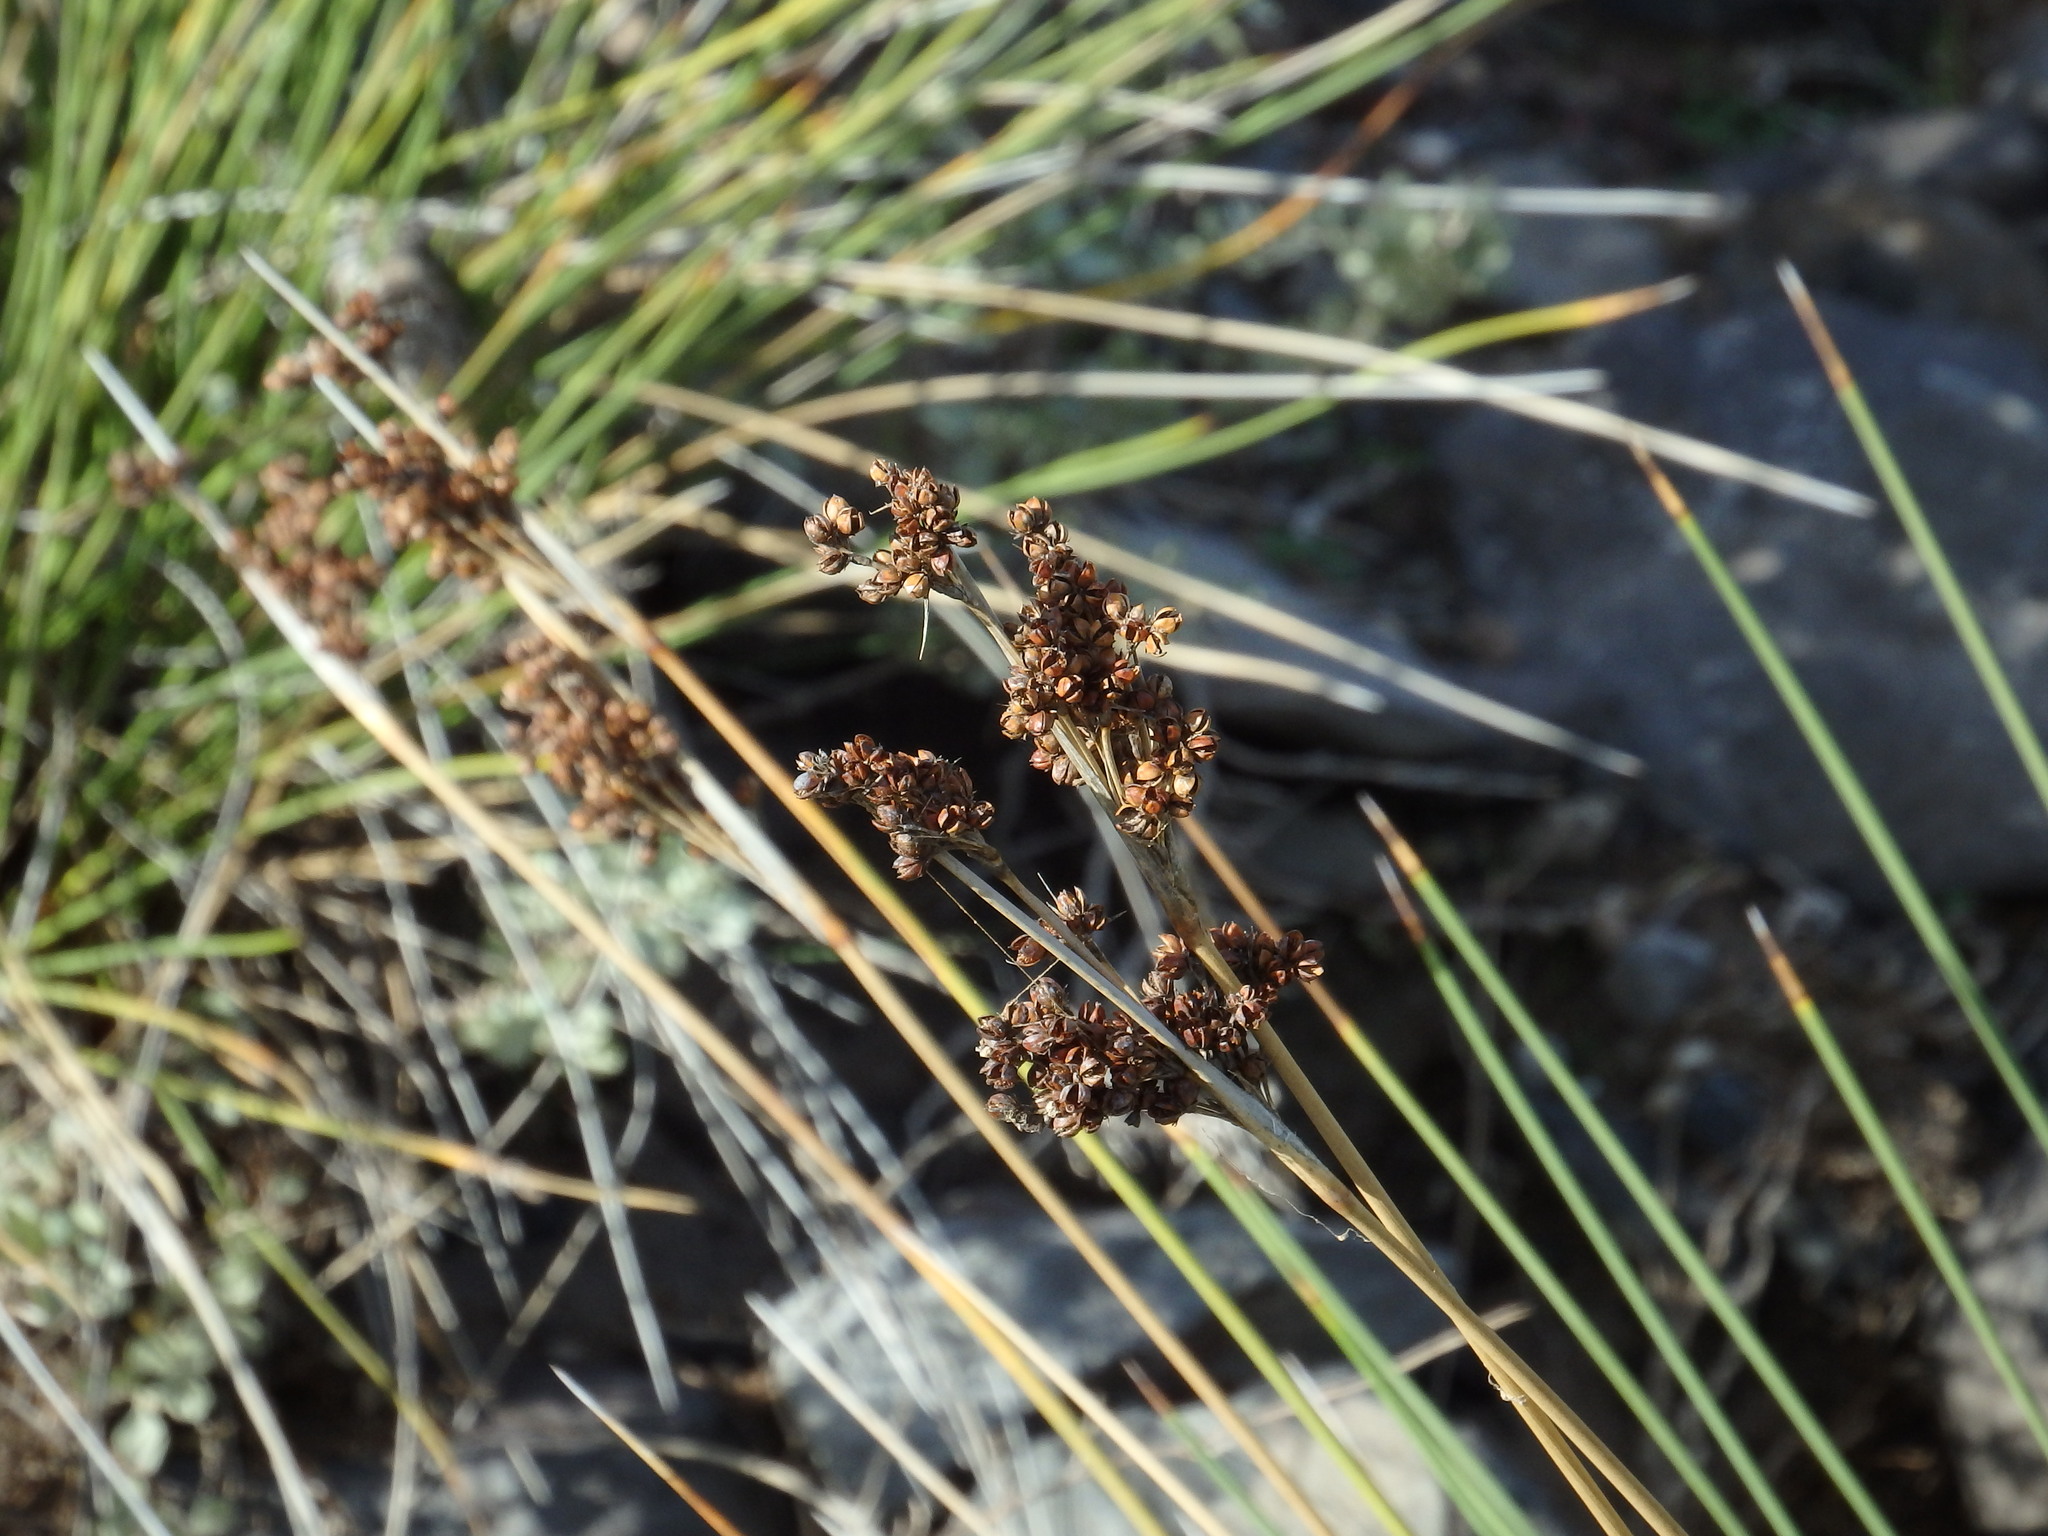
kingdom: Plantae
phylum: Tracheophyta
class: Liliopsida
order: Poales
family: Juncaceae
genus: Juncus
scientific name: Juncus acutus
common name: Sharp rush
